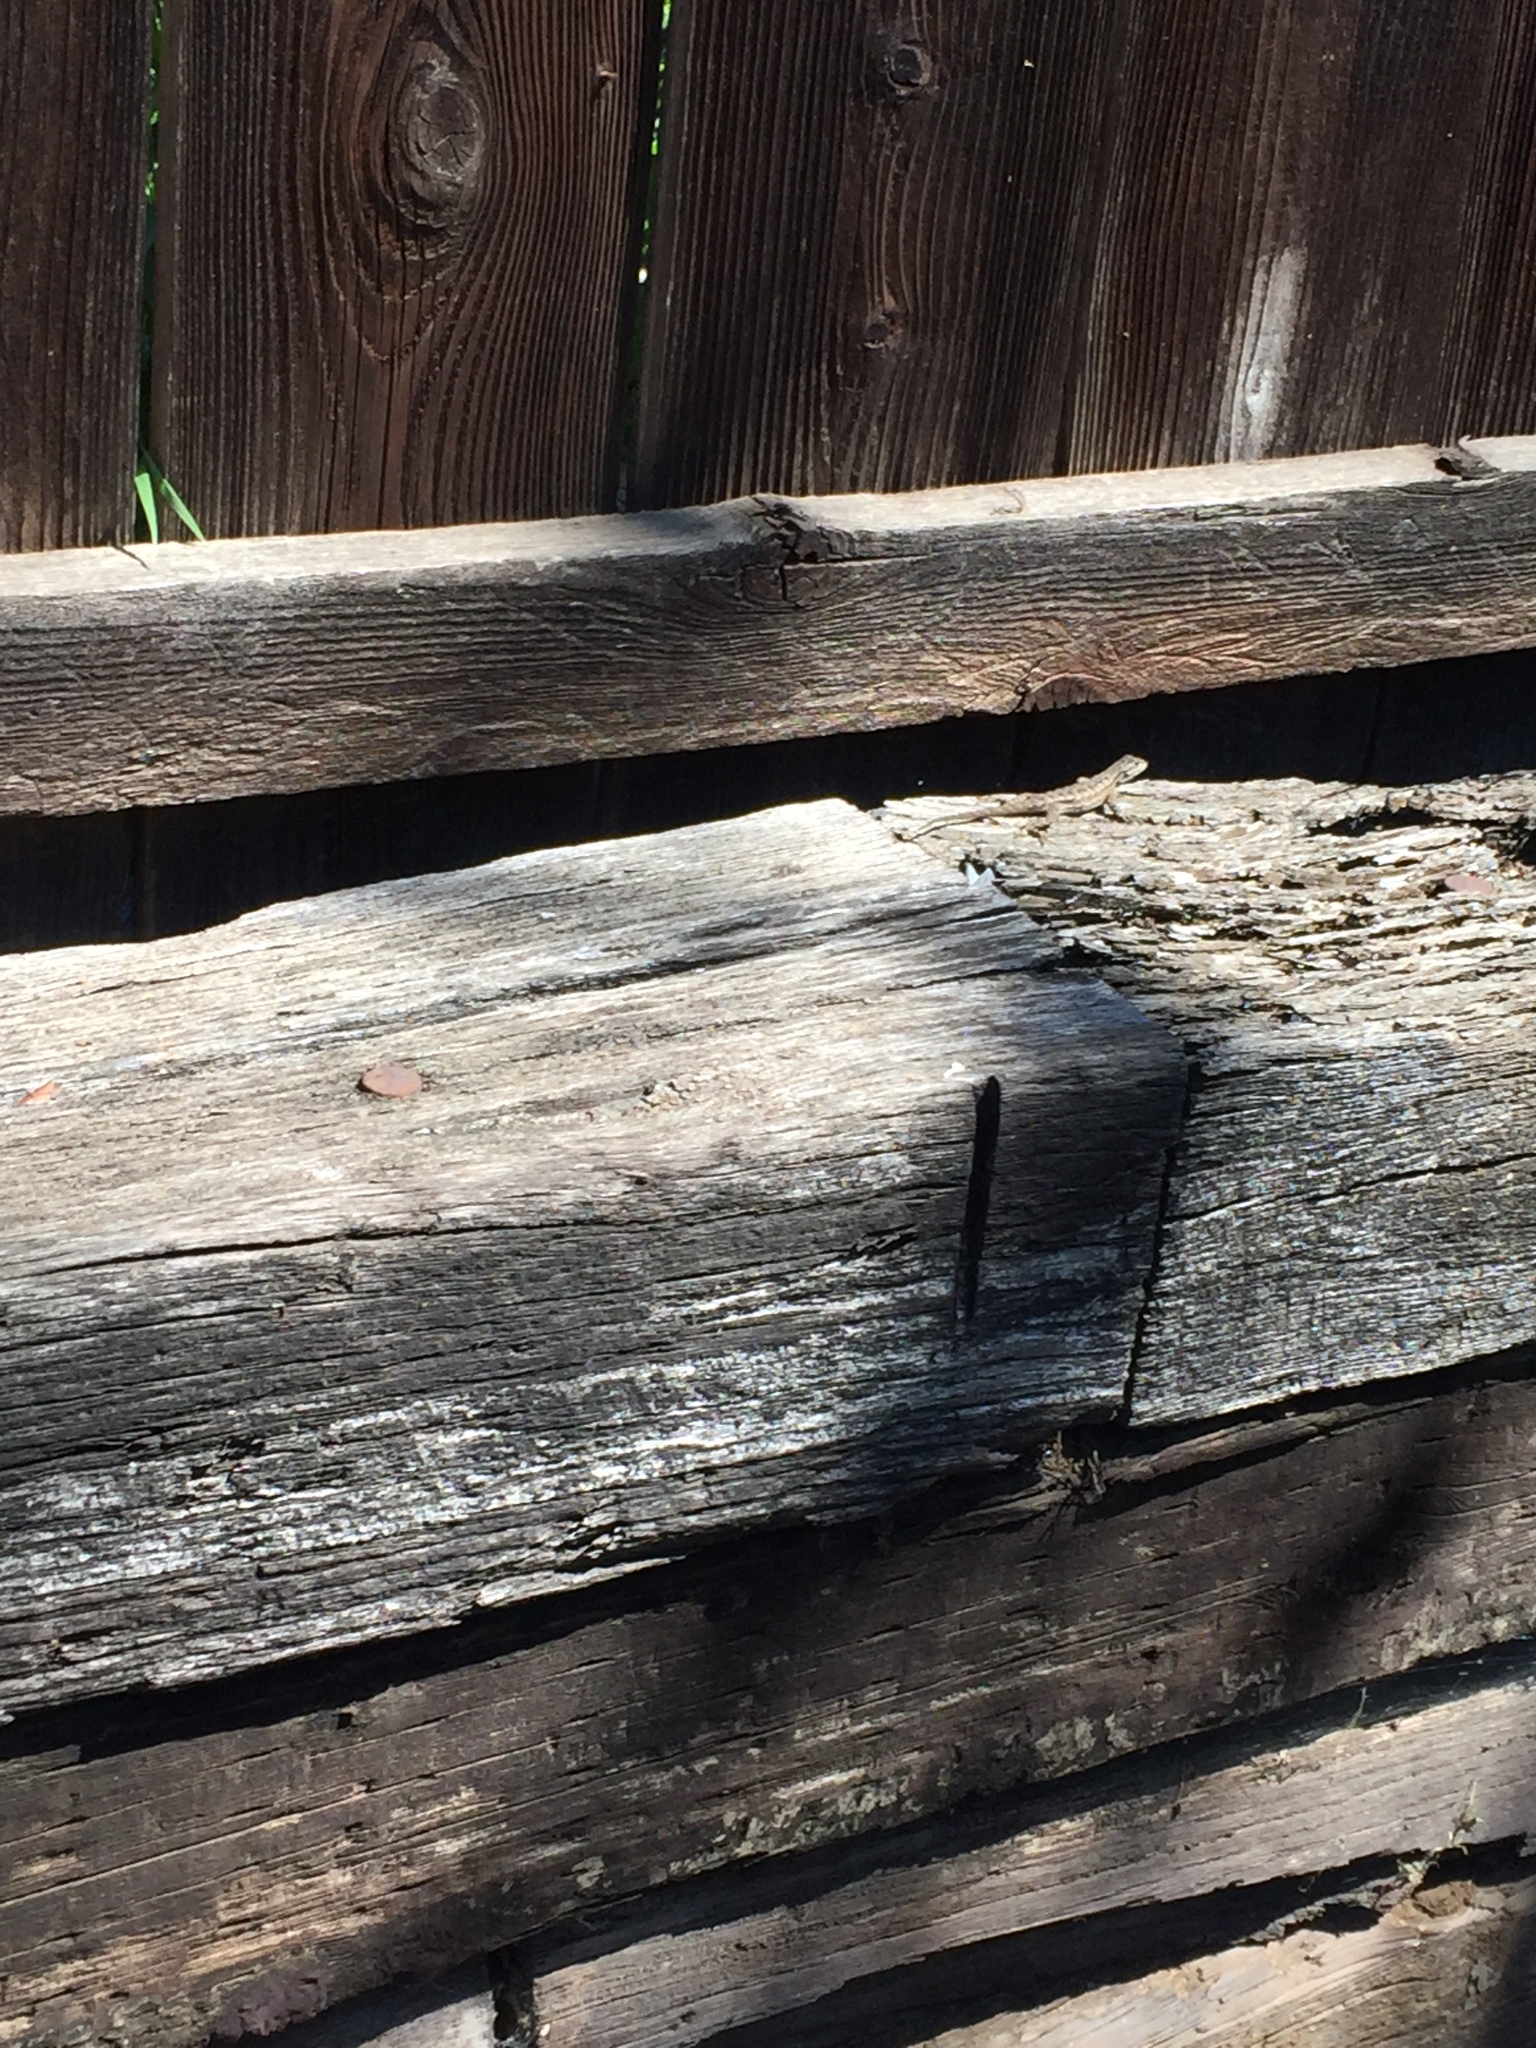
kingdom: Animalia
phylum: Chordata
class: Squamata
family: Phrynosomatidae
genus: Sceloporus
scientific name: Sceloporus occidentalis
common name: Western fence lizard
